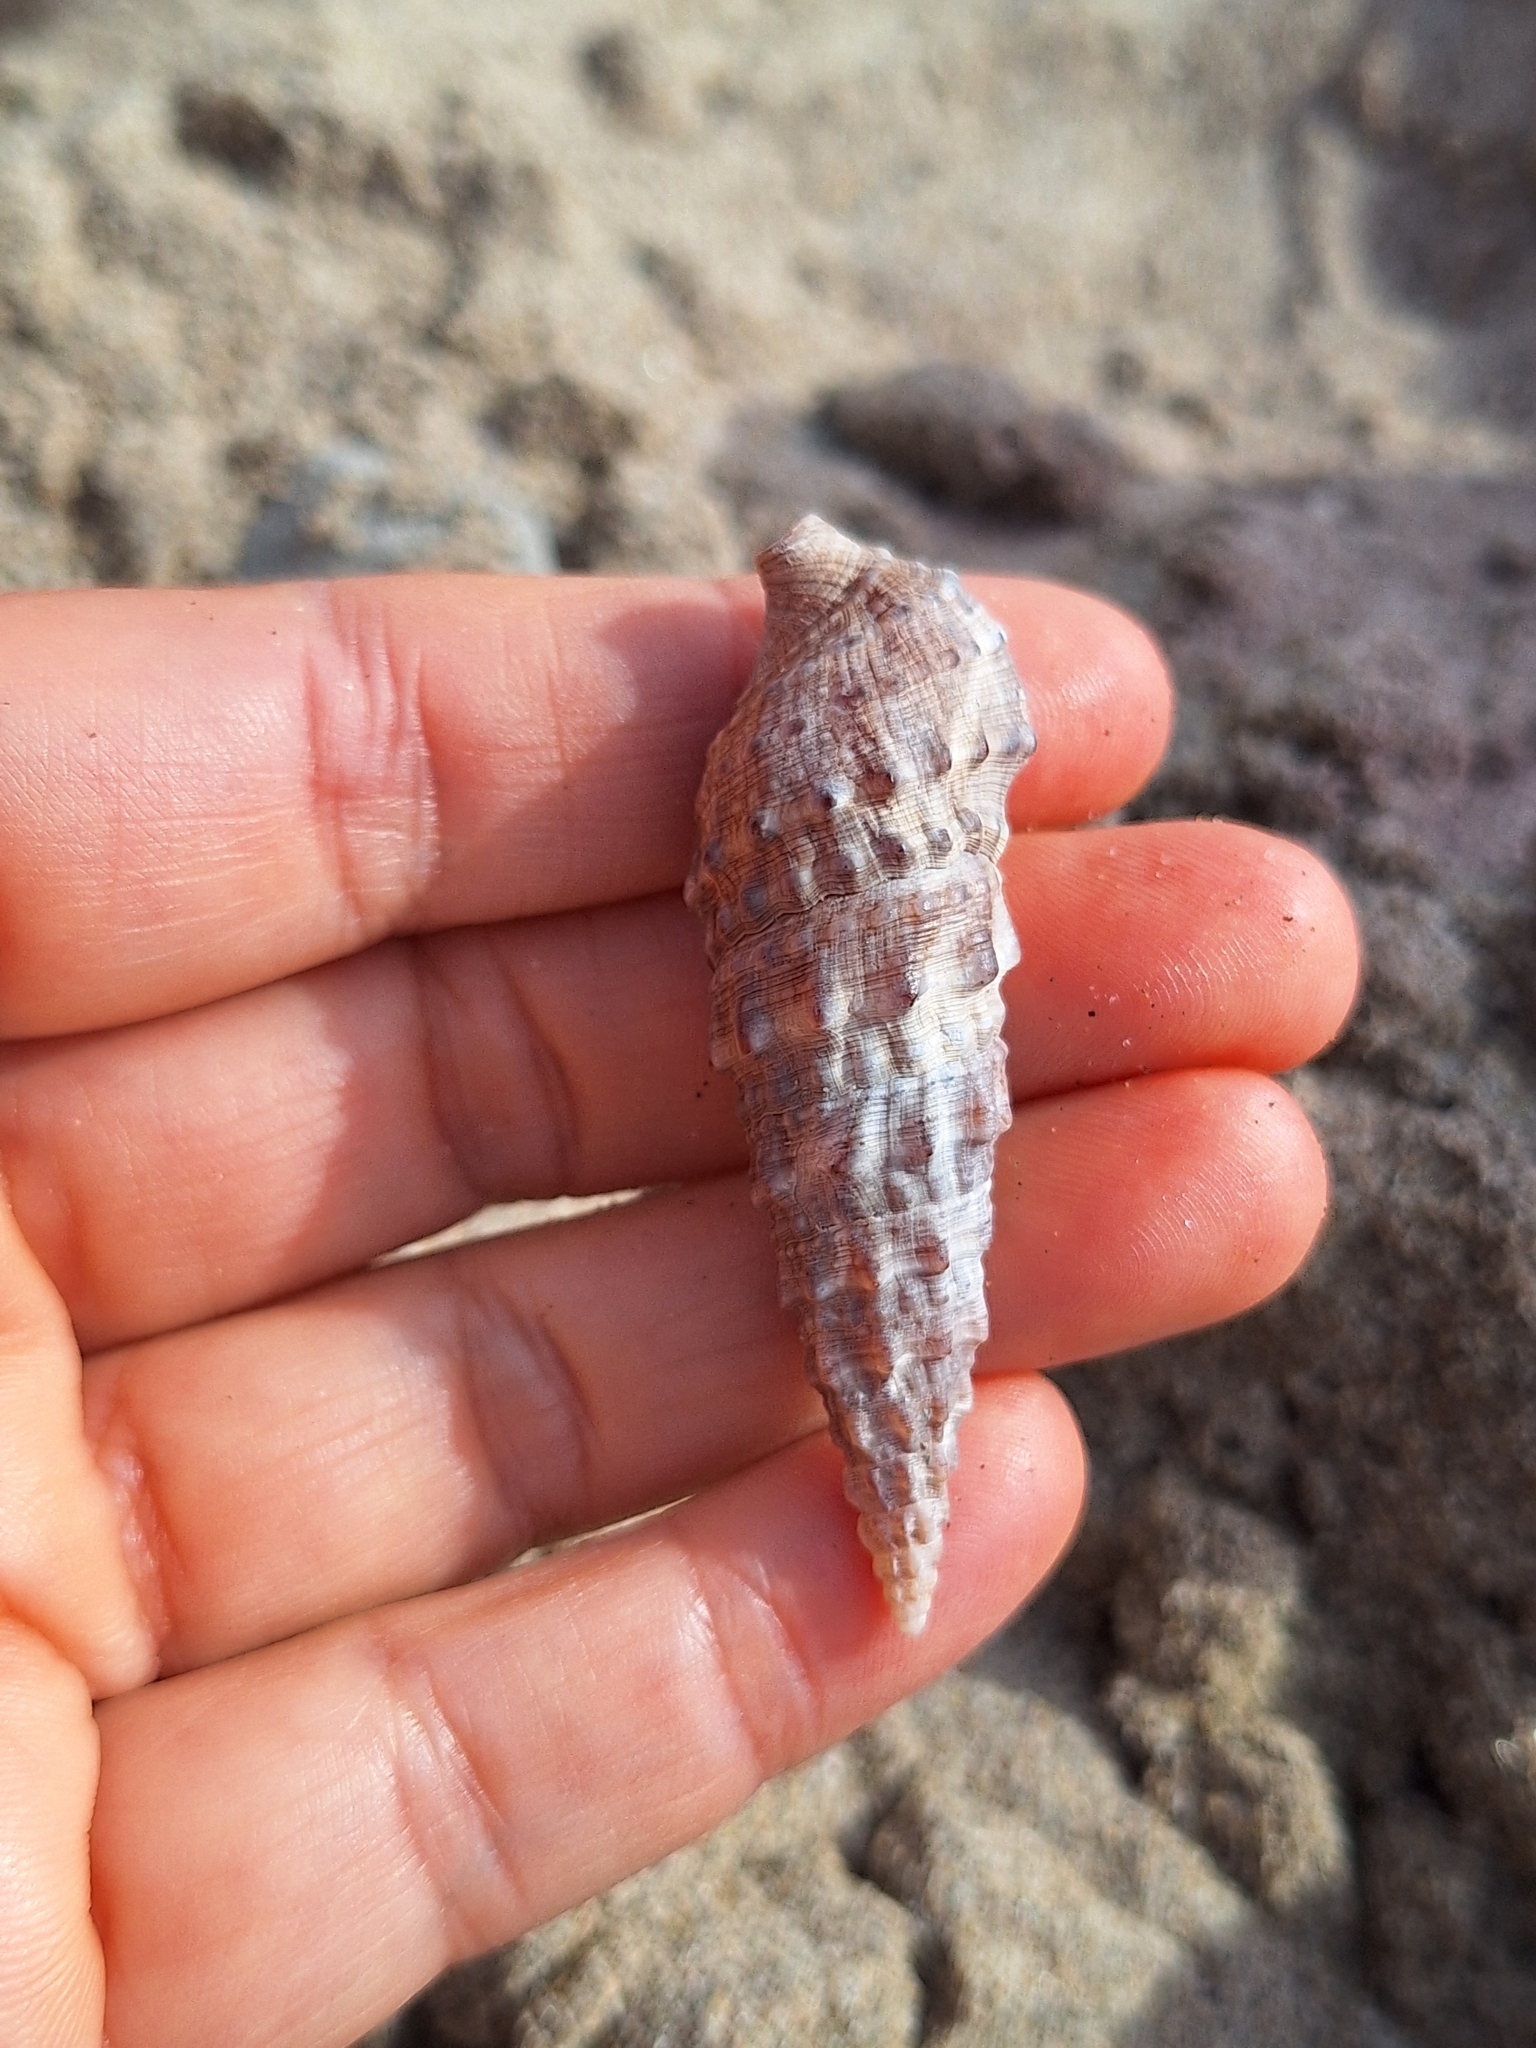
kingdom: Animalia
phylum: Mollusca
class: Gastropoda
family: Cerithiidae
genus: Cerithium
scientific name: Cerithium vulgatum
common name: European cerith
